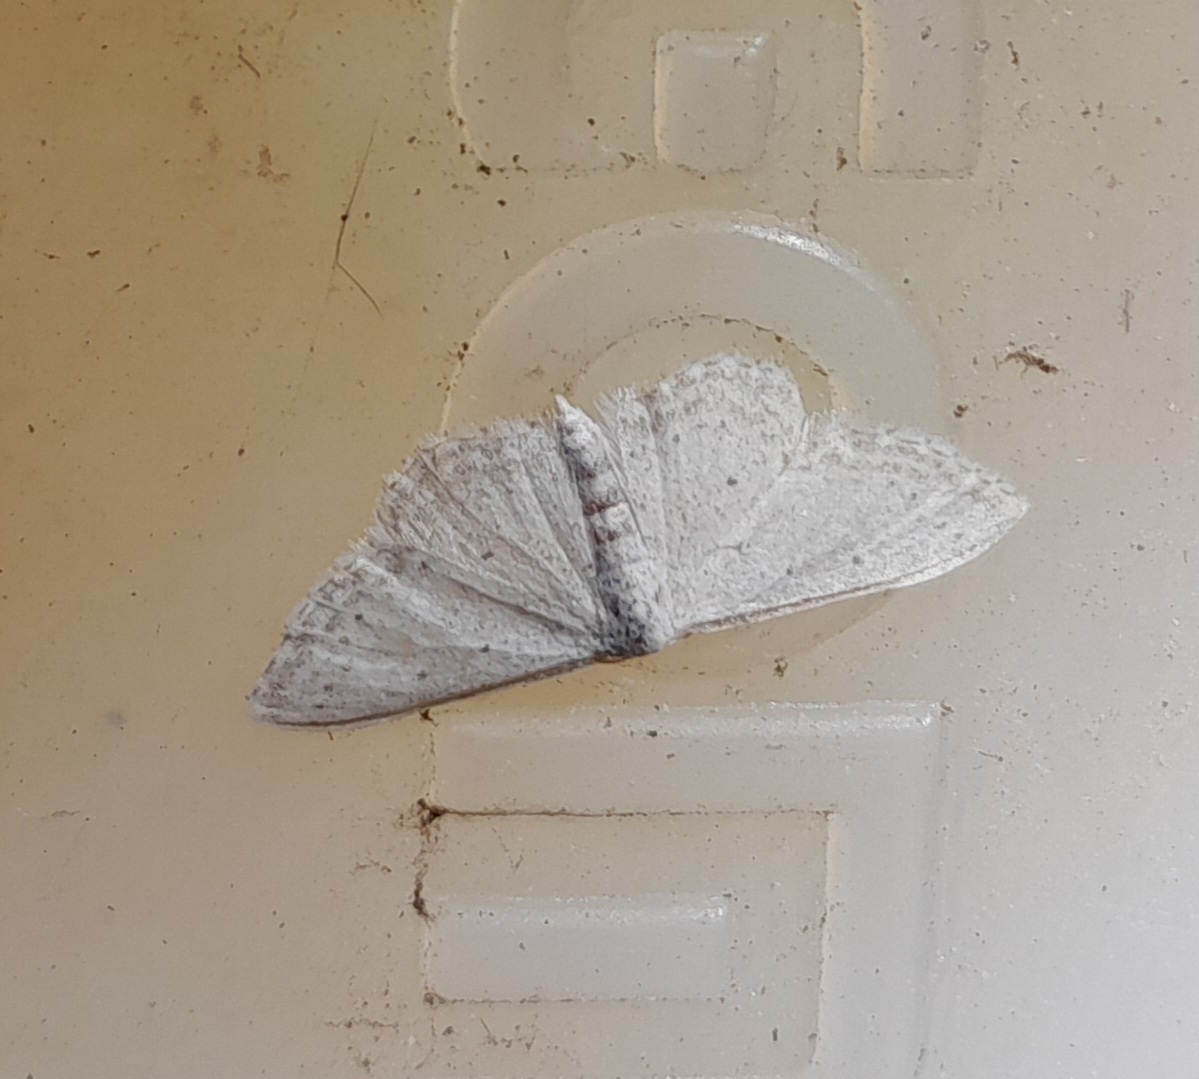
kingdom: Animalia
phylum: Arthropoda
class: Insecta
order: Lepidoptera
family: Geometridae
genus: Idaea
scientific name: Idaea seriata
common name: Small dusty wave
